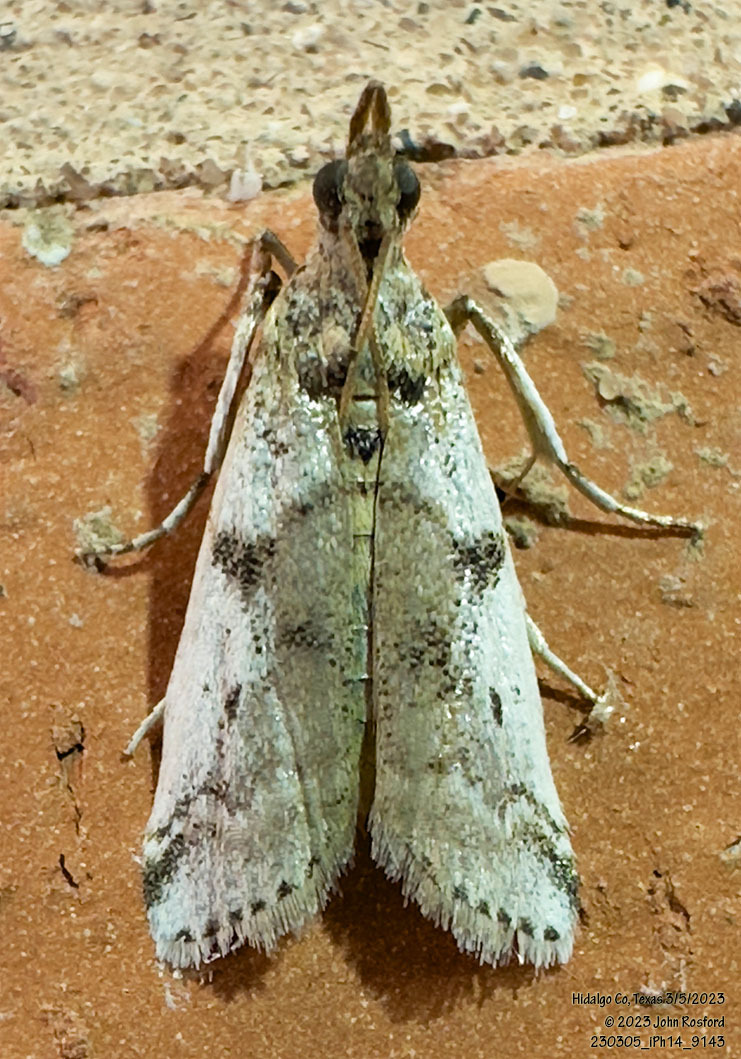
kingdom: Animalia
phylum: Arthropoda
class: Insecta
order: Lepidoptera
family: Pyralidae
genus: Laetilia
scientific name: Laetilia coccidivora
